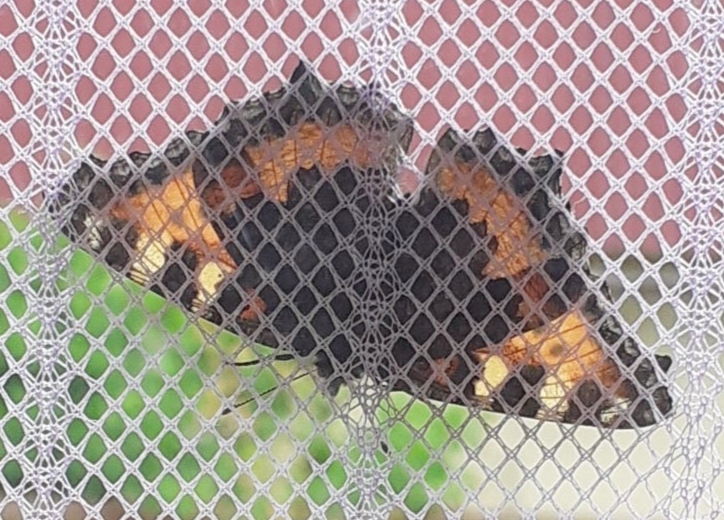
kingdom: Animalia
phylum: Arthropoda
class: Insecta
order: Lepidoptera
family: Nymphalidae
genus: Aglais
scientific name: Aglais urticae
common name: Small tortoiseshell
